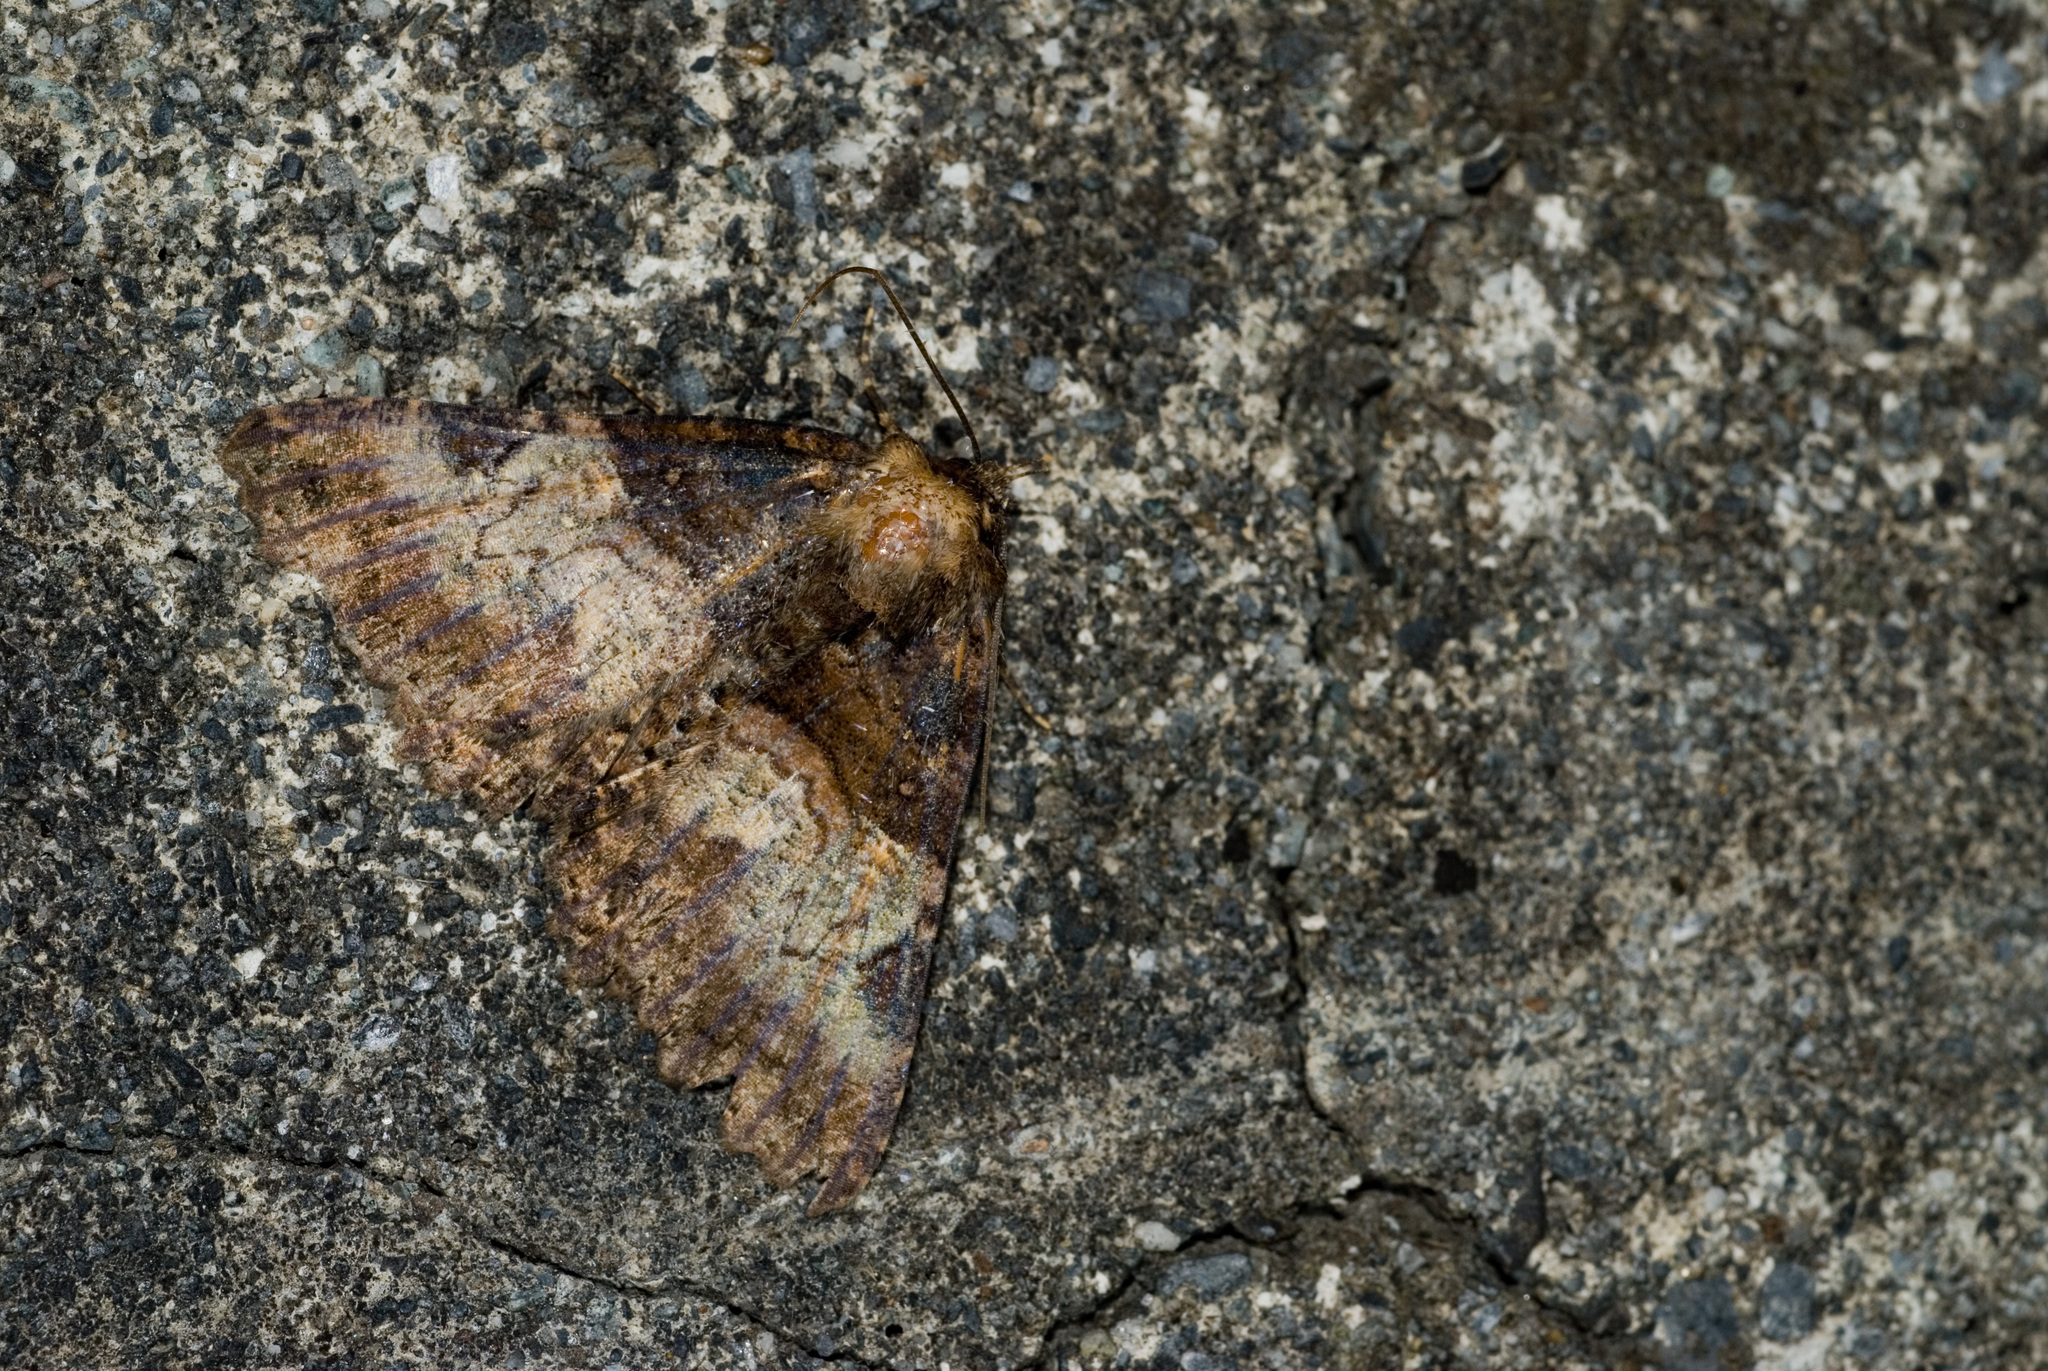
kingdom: Animalia
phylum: Arthropoda
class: Insecta
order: Lepidoptera
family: Erebidae
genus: Daddala
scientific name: Daddala lucilla
